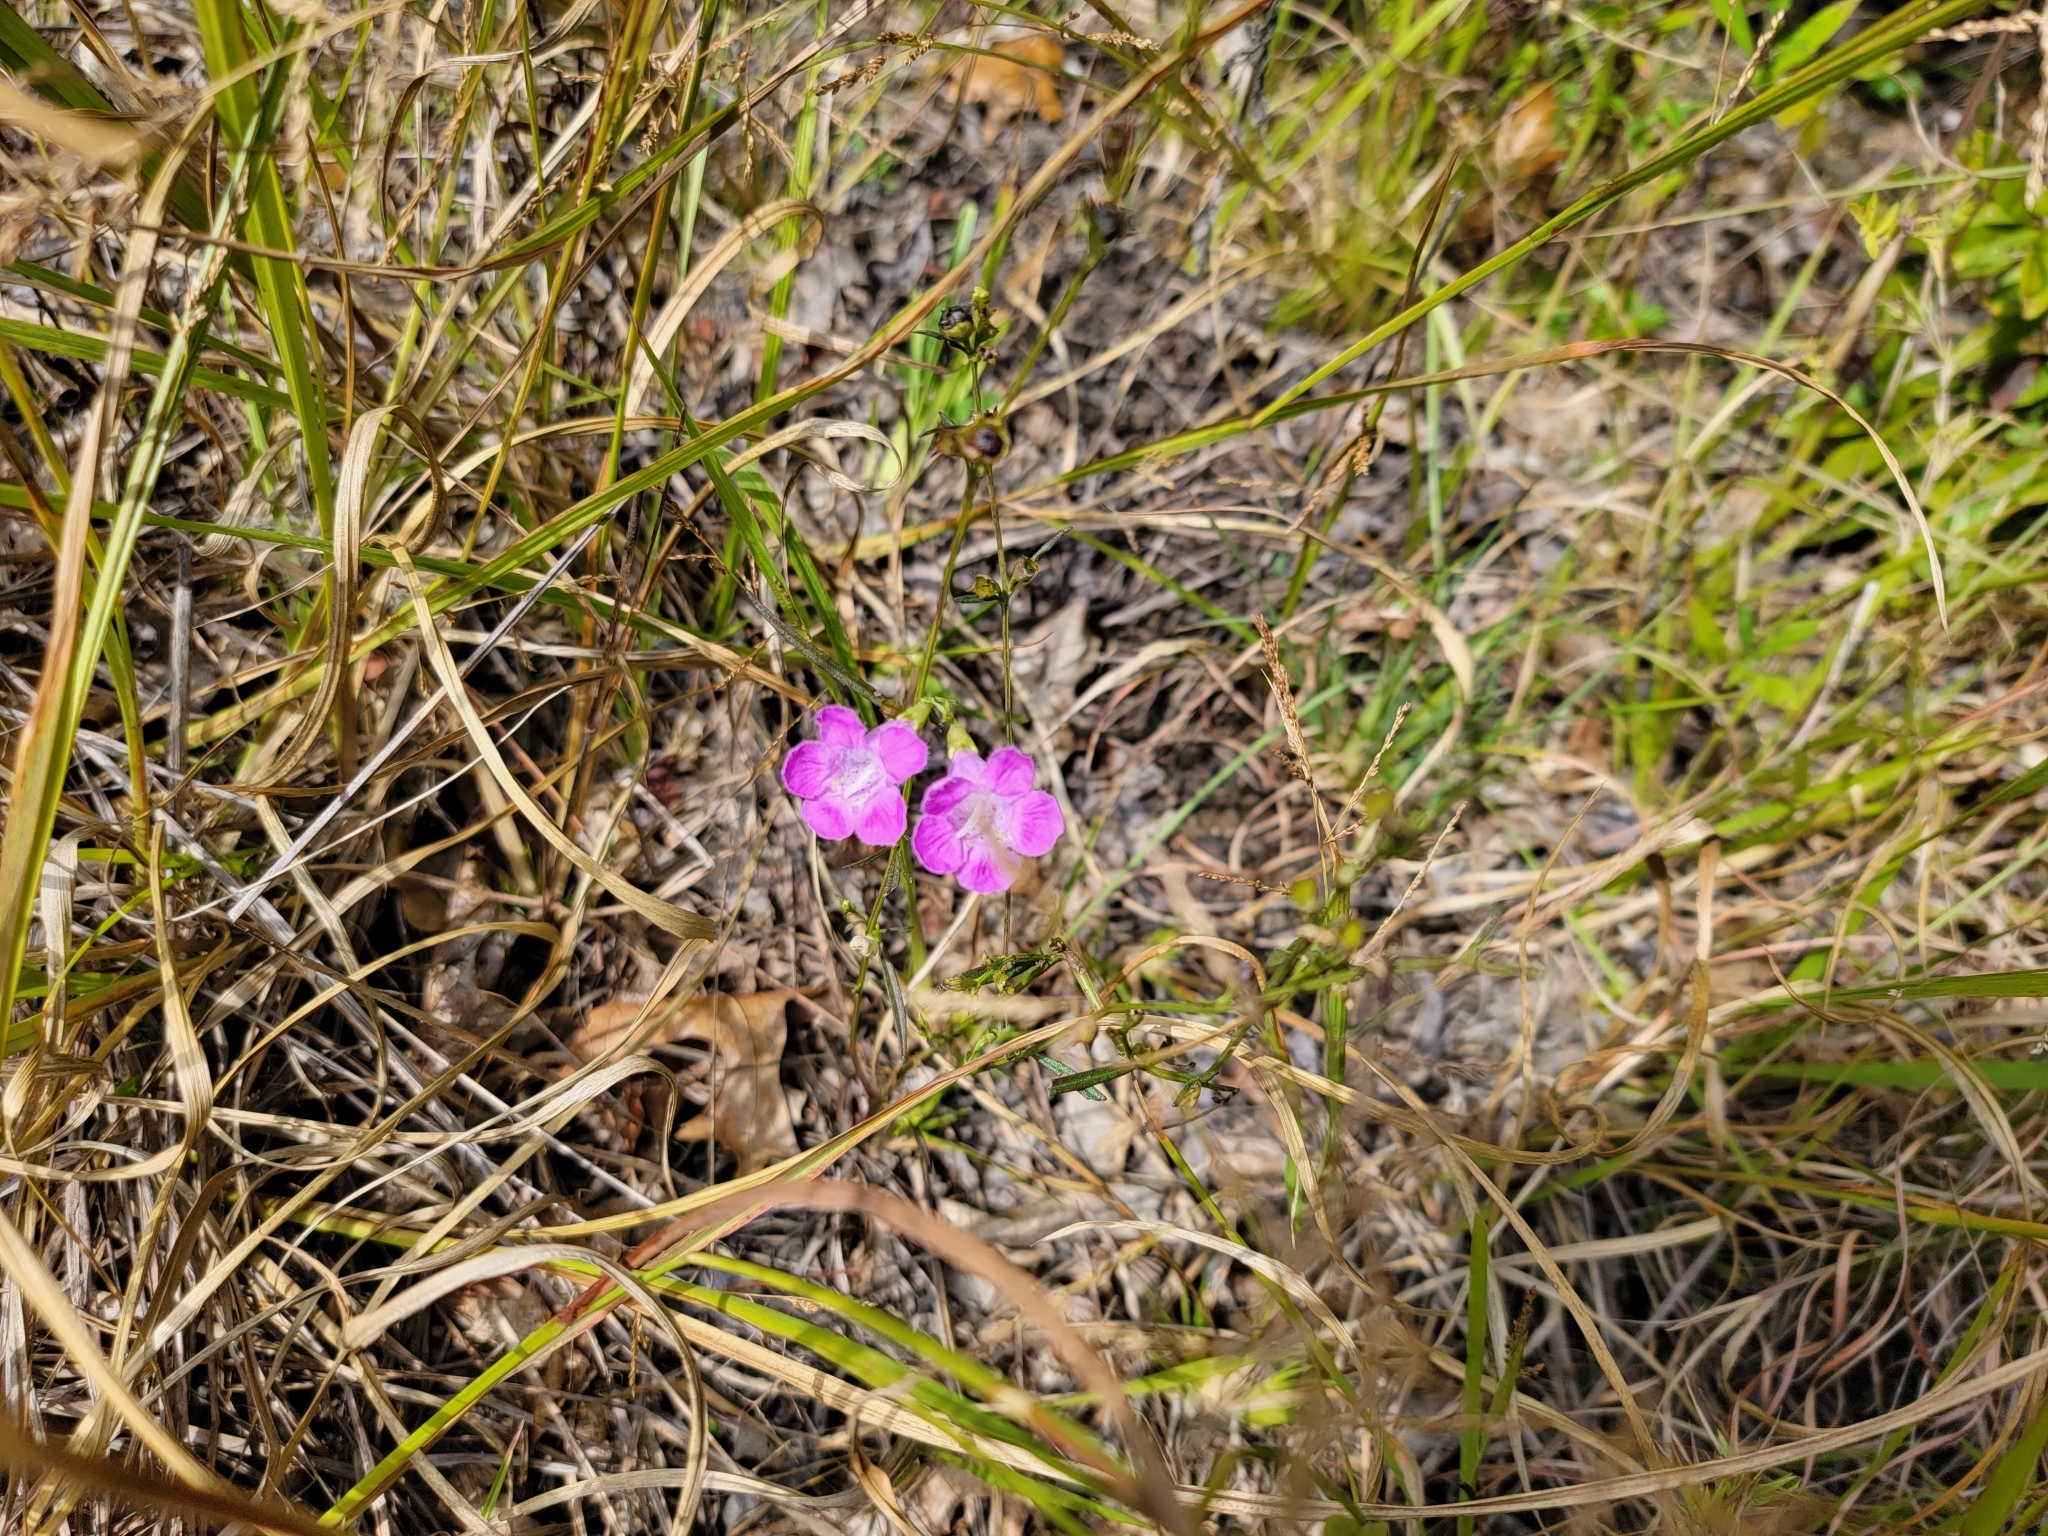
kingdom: Plantae
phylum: Tracheophyta
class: Magnoliopsida
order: Lamiales
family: Orobanchaceae
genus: Agalinis
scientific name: Agalinis purpurea
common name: Purple false foxglove
